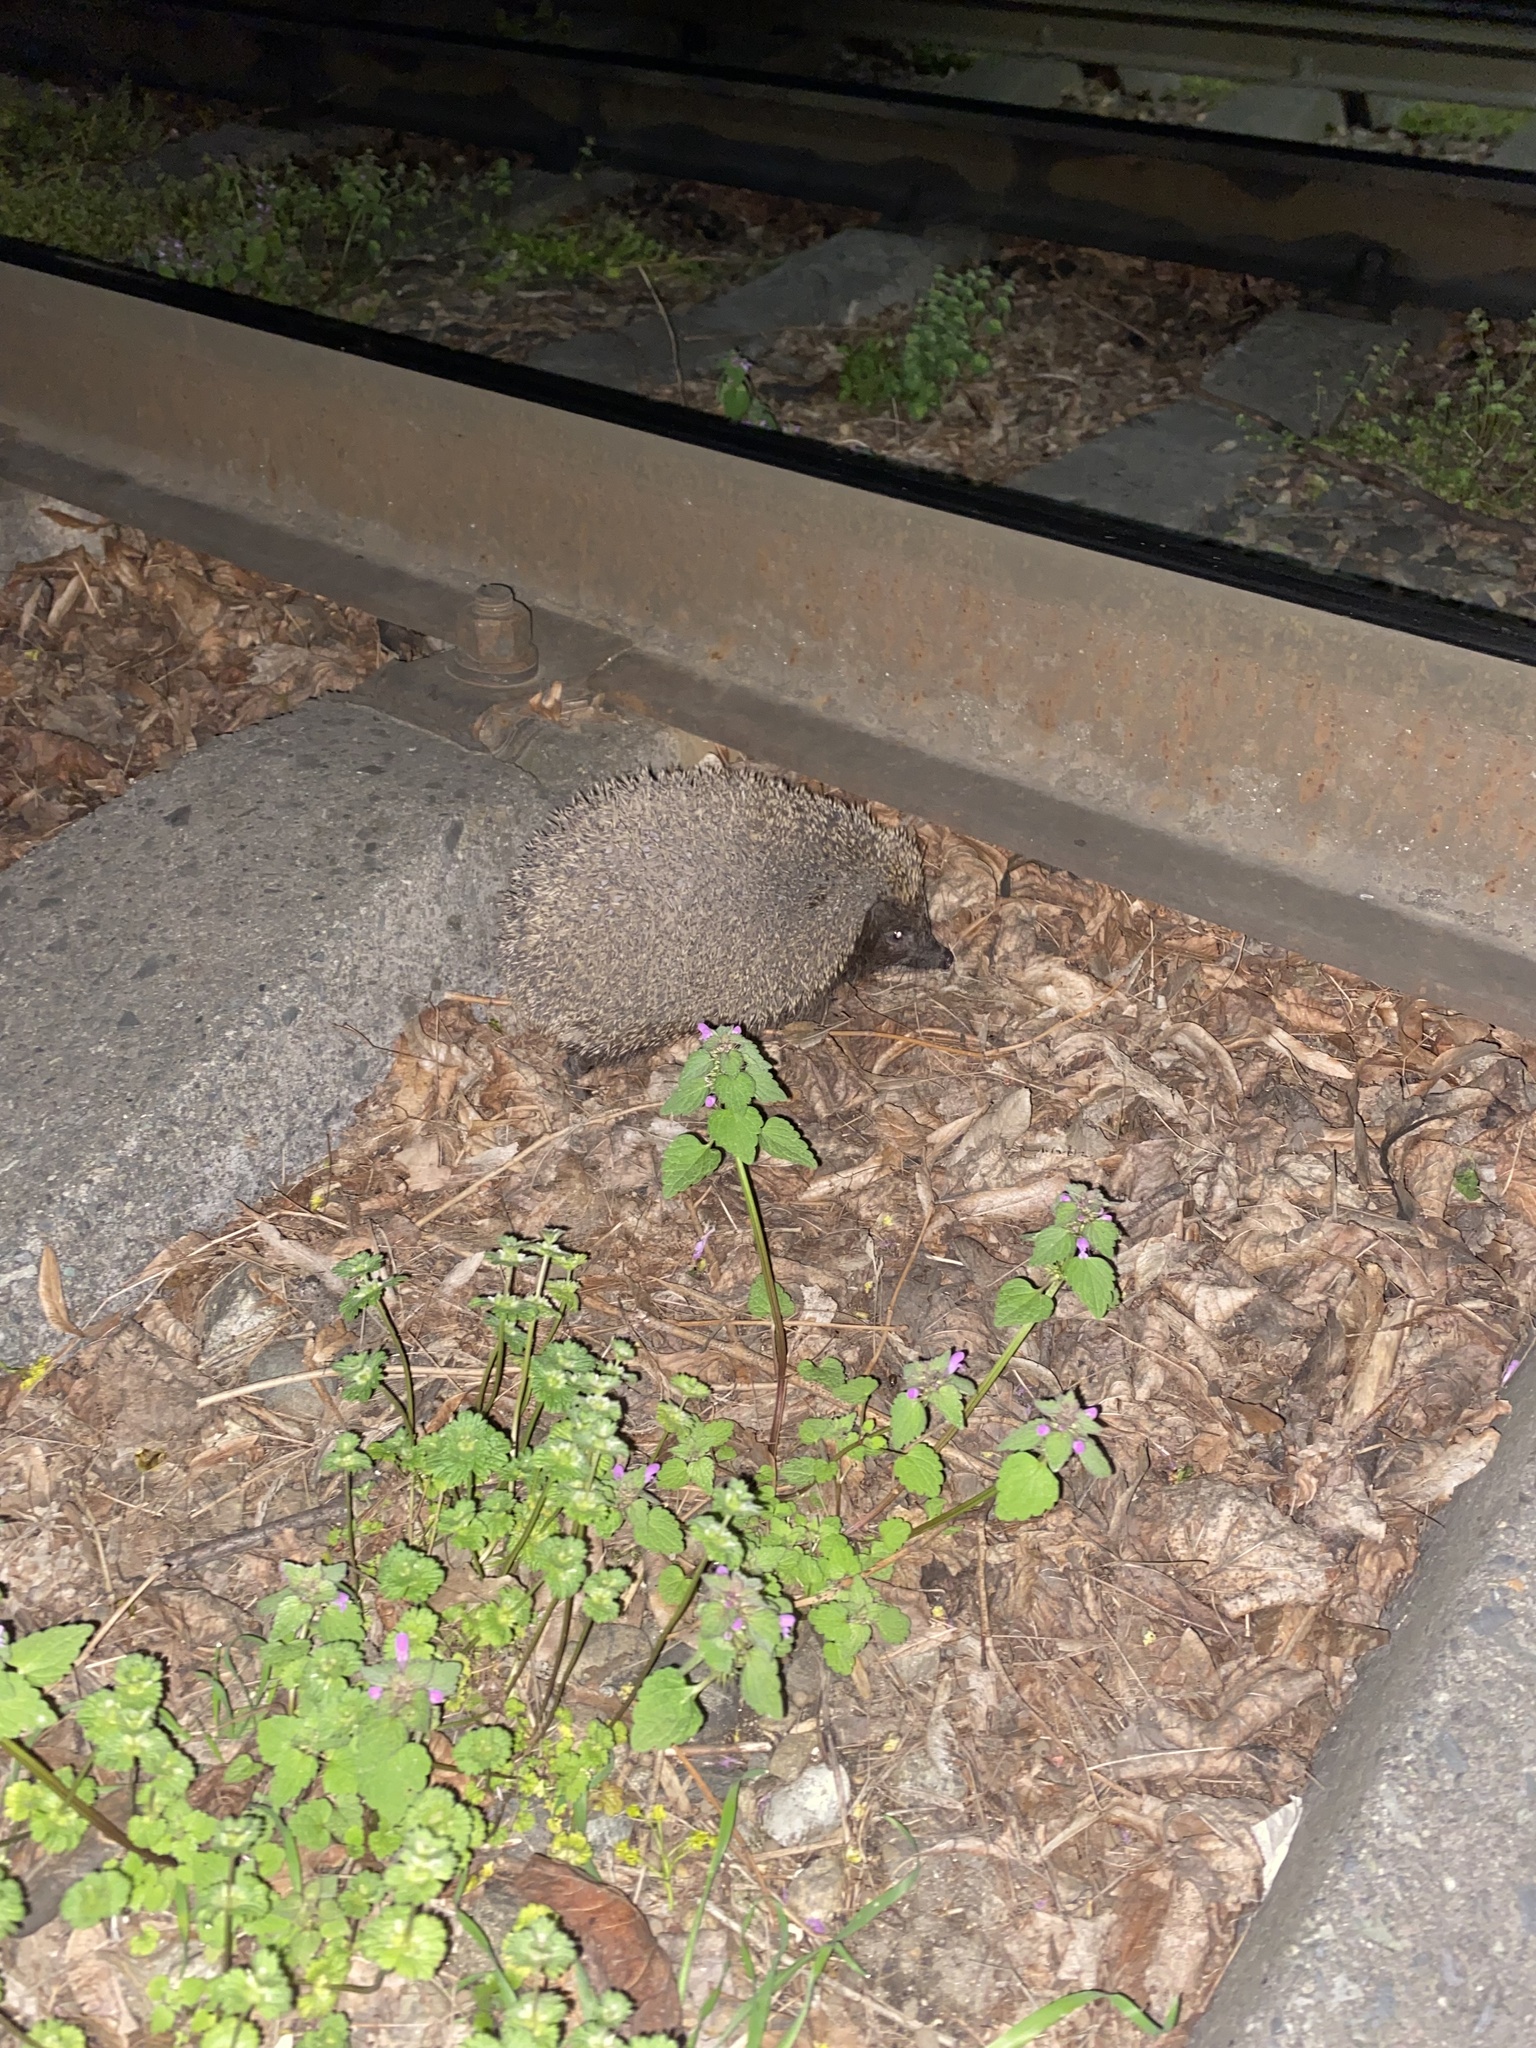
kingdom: Animalia
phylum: Chordata
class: Mammalia
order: Erinaceomorpha
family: Erinaceidae
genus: Erinaceus
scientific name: Erinaceus roumanicus
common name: Northern white-breasted hedgehog
